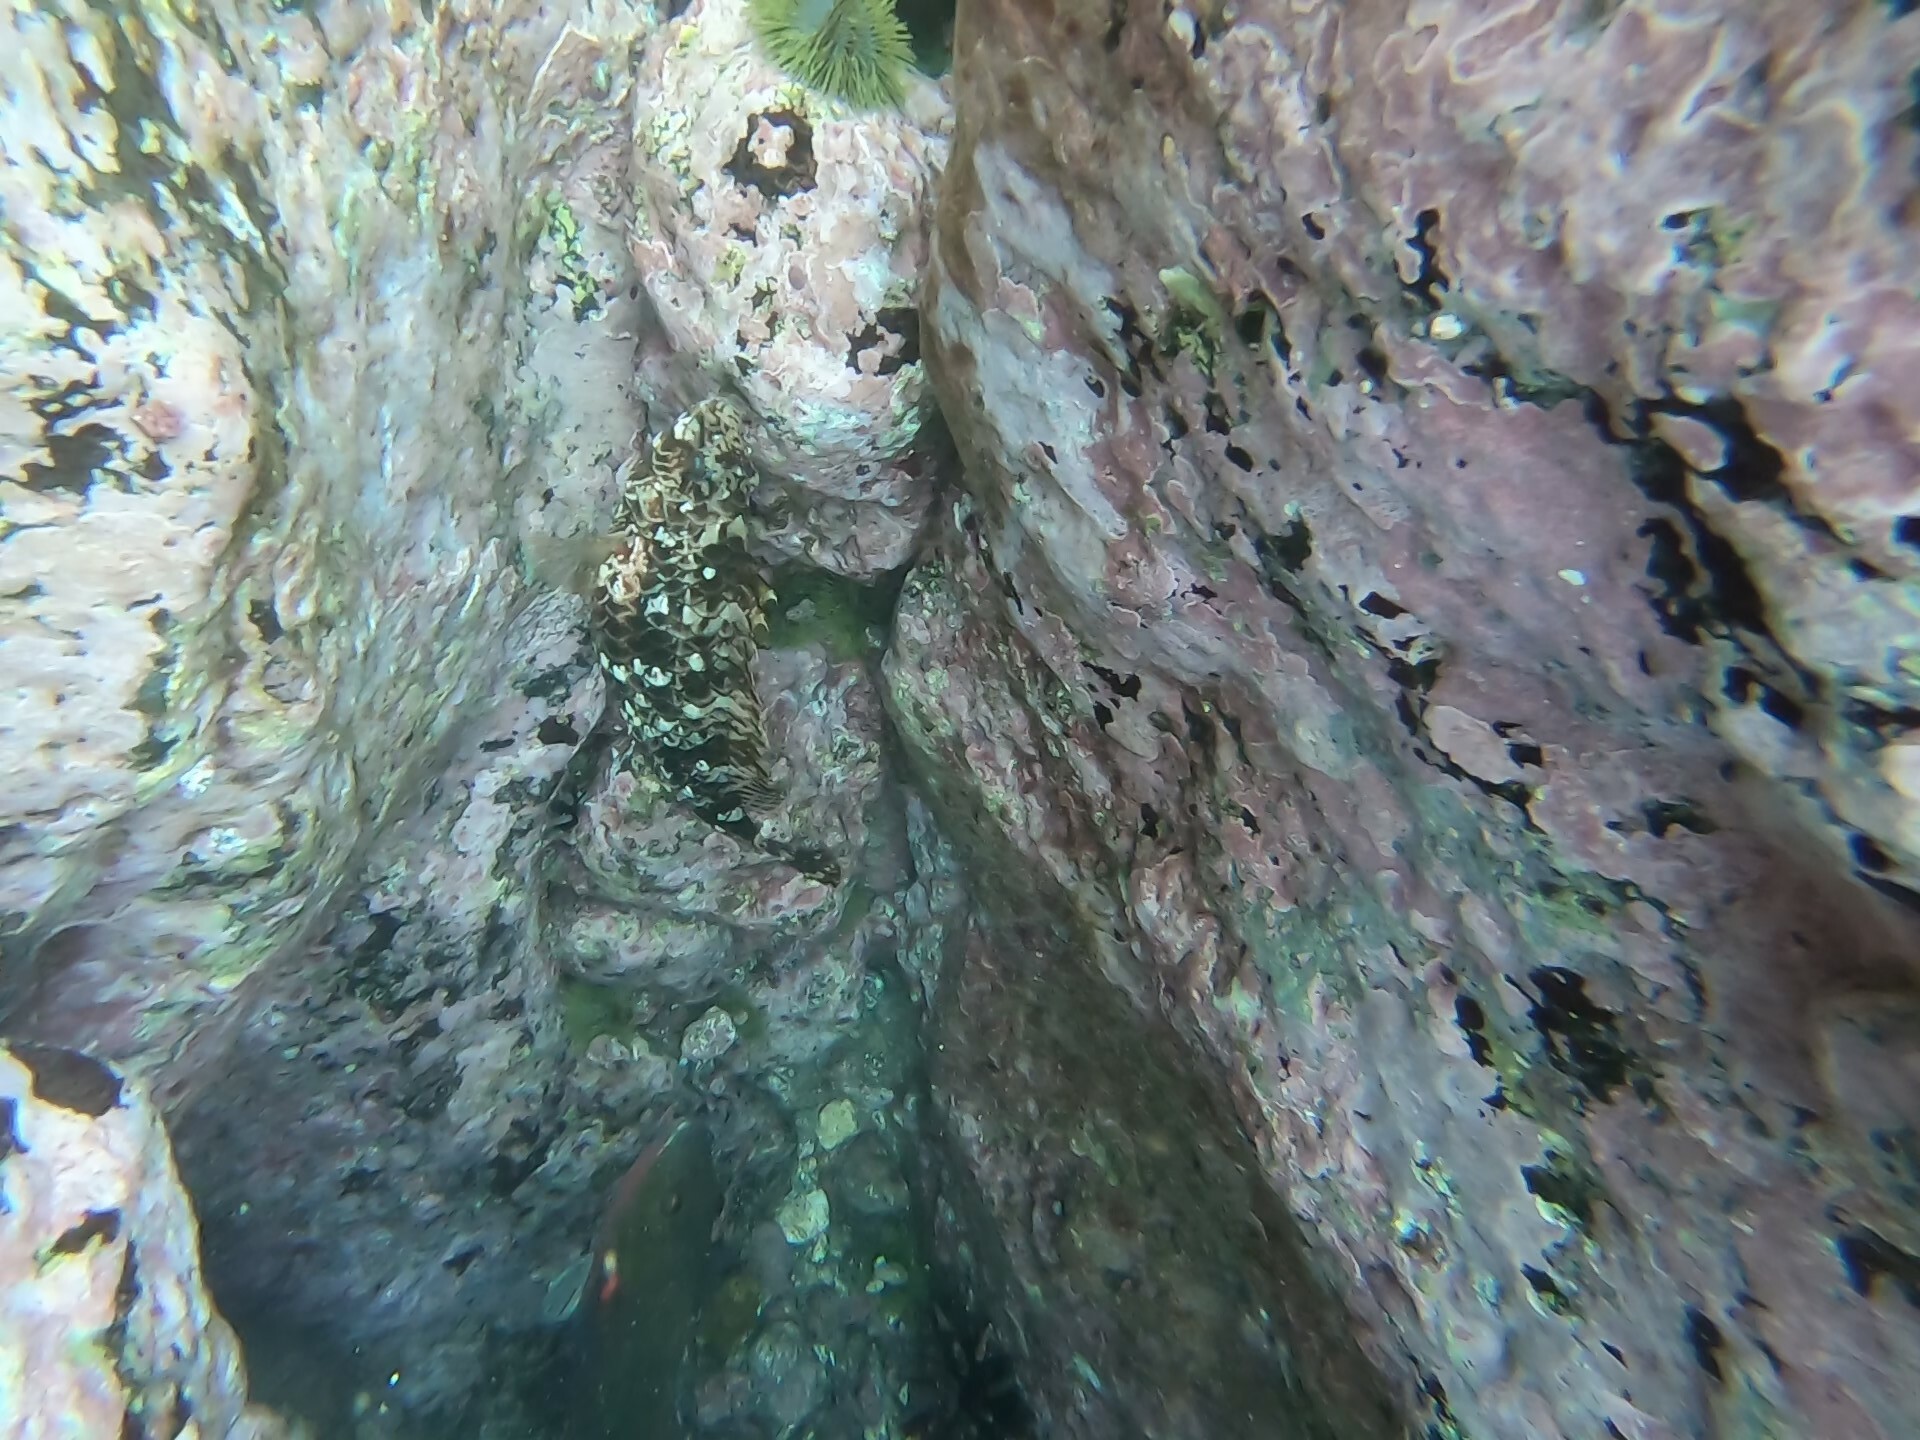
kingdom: Animalia
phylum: Chordata
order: Perciformes
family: Serranidae
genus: Epinephelus
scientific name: Epinephelus labriformis
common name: Flag cabrilla
